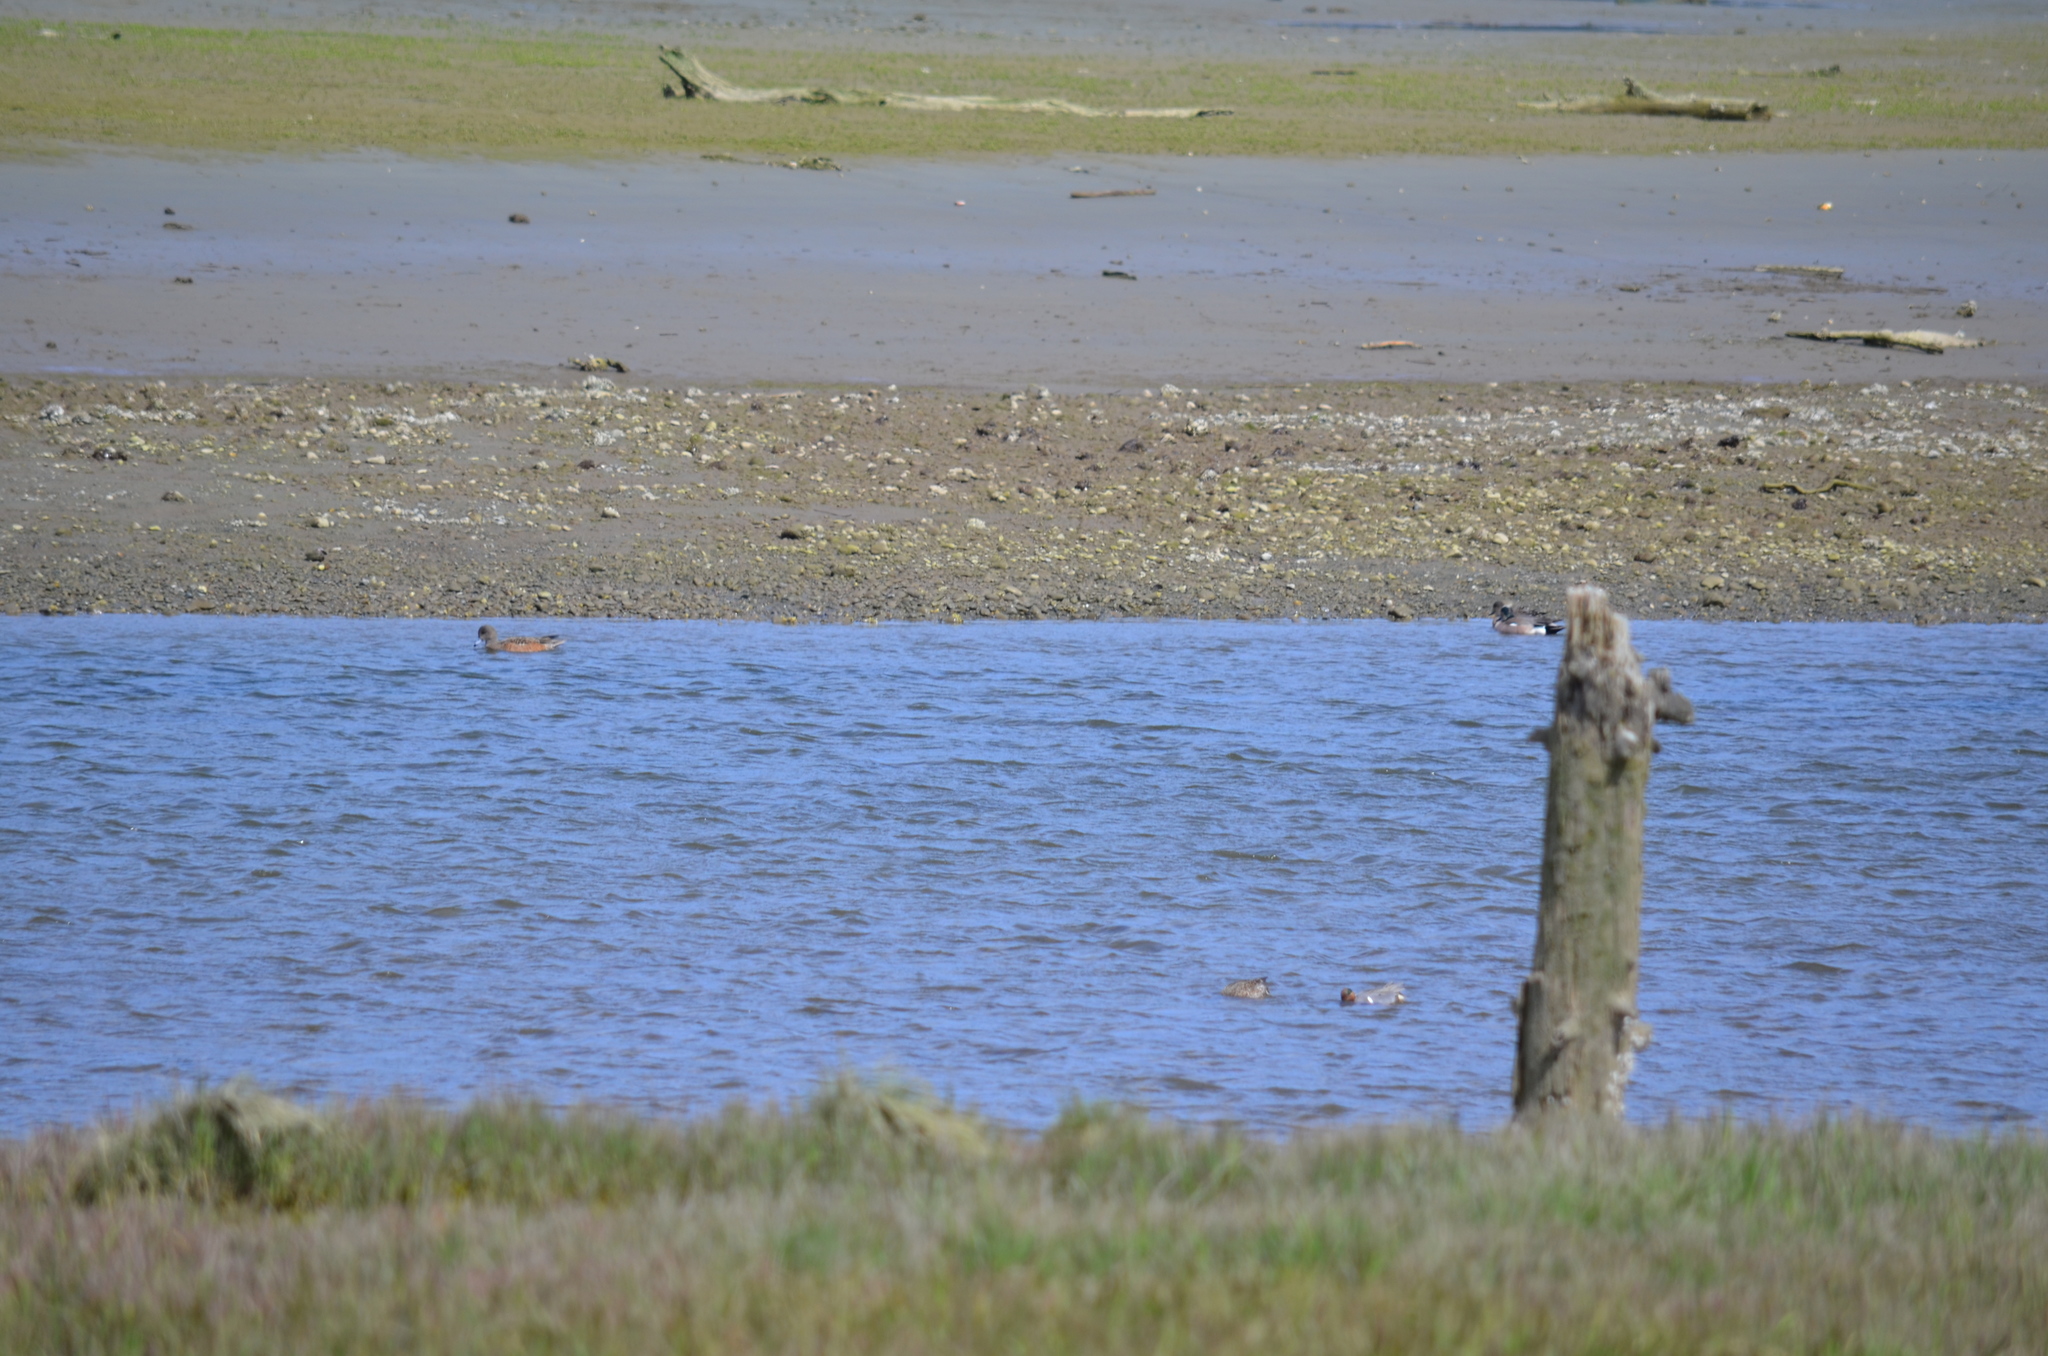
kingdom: Animalia
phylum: Chordata
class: Aves
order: Anseriformes
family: Anatidae
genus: Anas
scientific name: Anas crecca
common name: Eurasian teal
